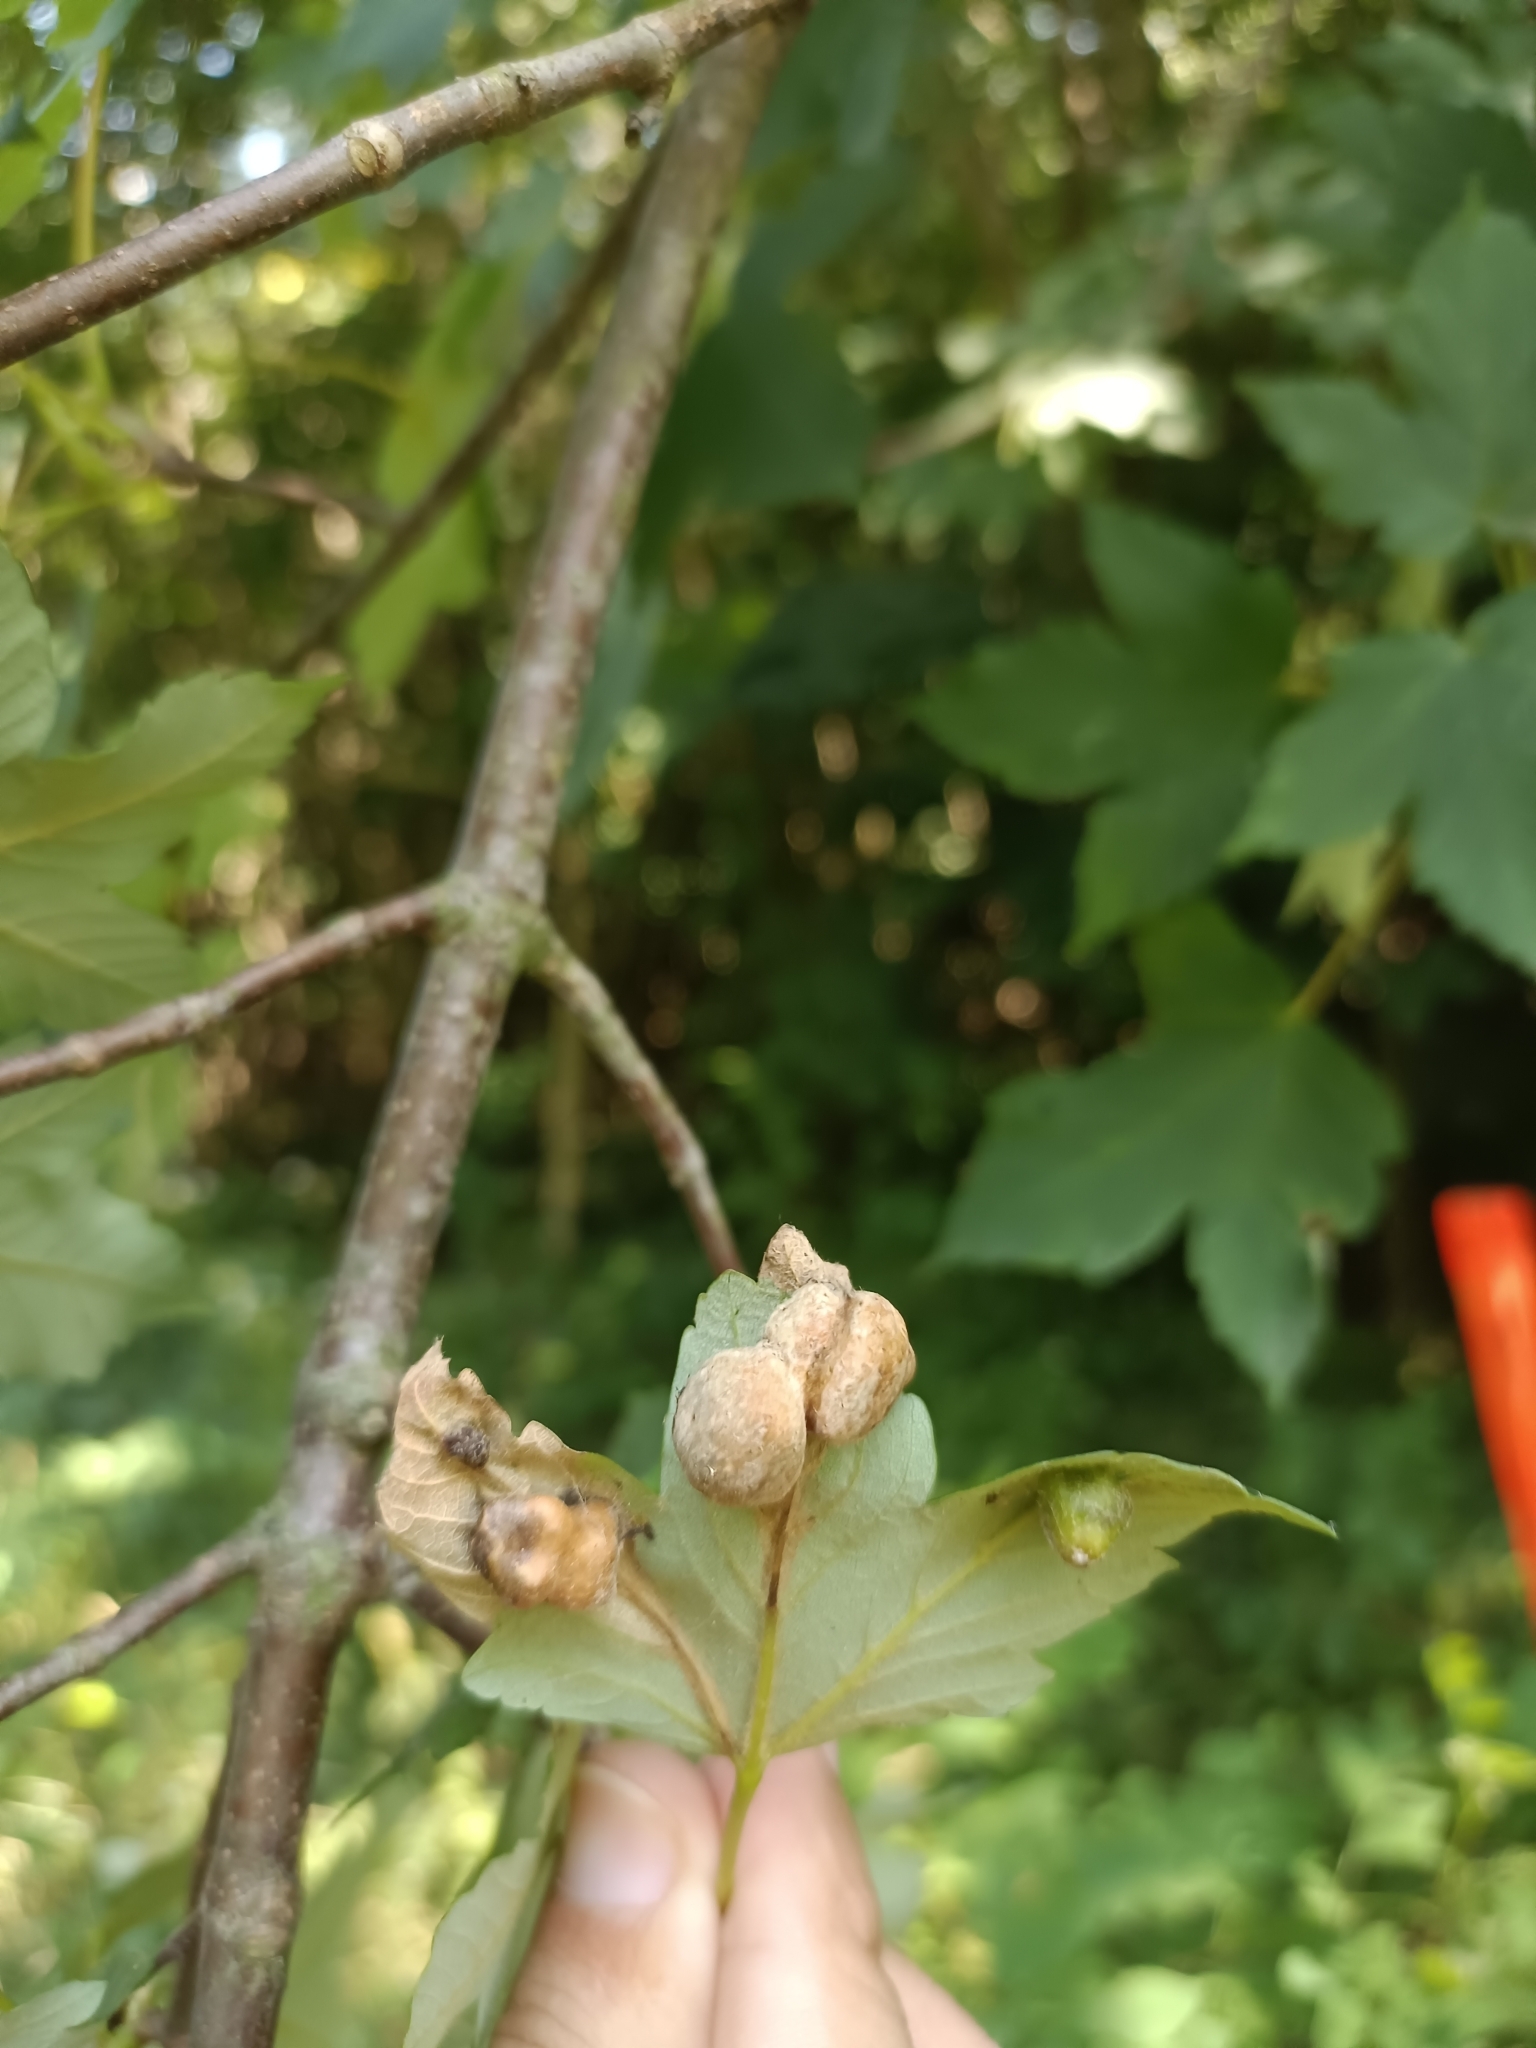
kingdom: Animalia
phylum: Arthropoda
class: Insecta
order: Hymenoptera
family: Cynipidae
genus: Pediaspis
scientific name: Pediaspis aceris
